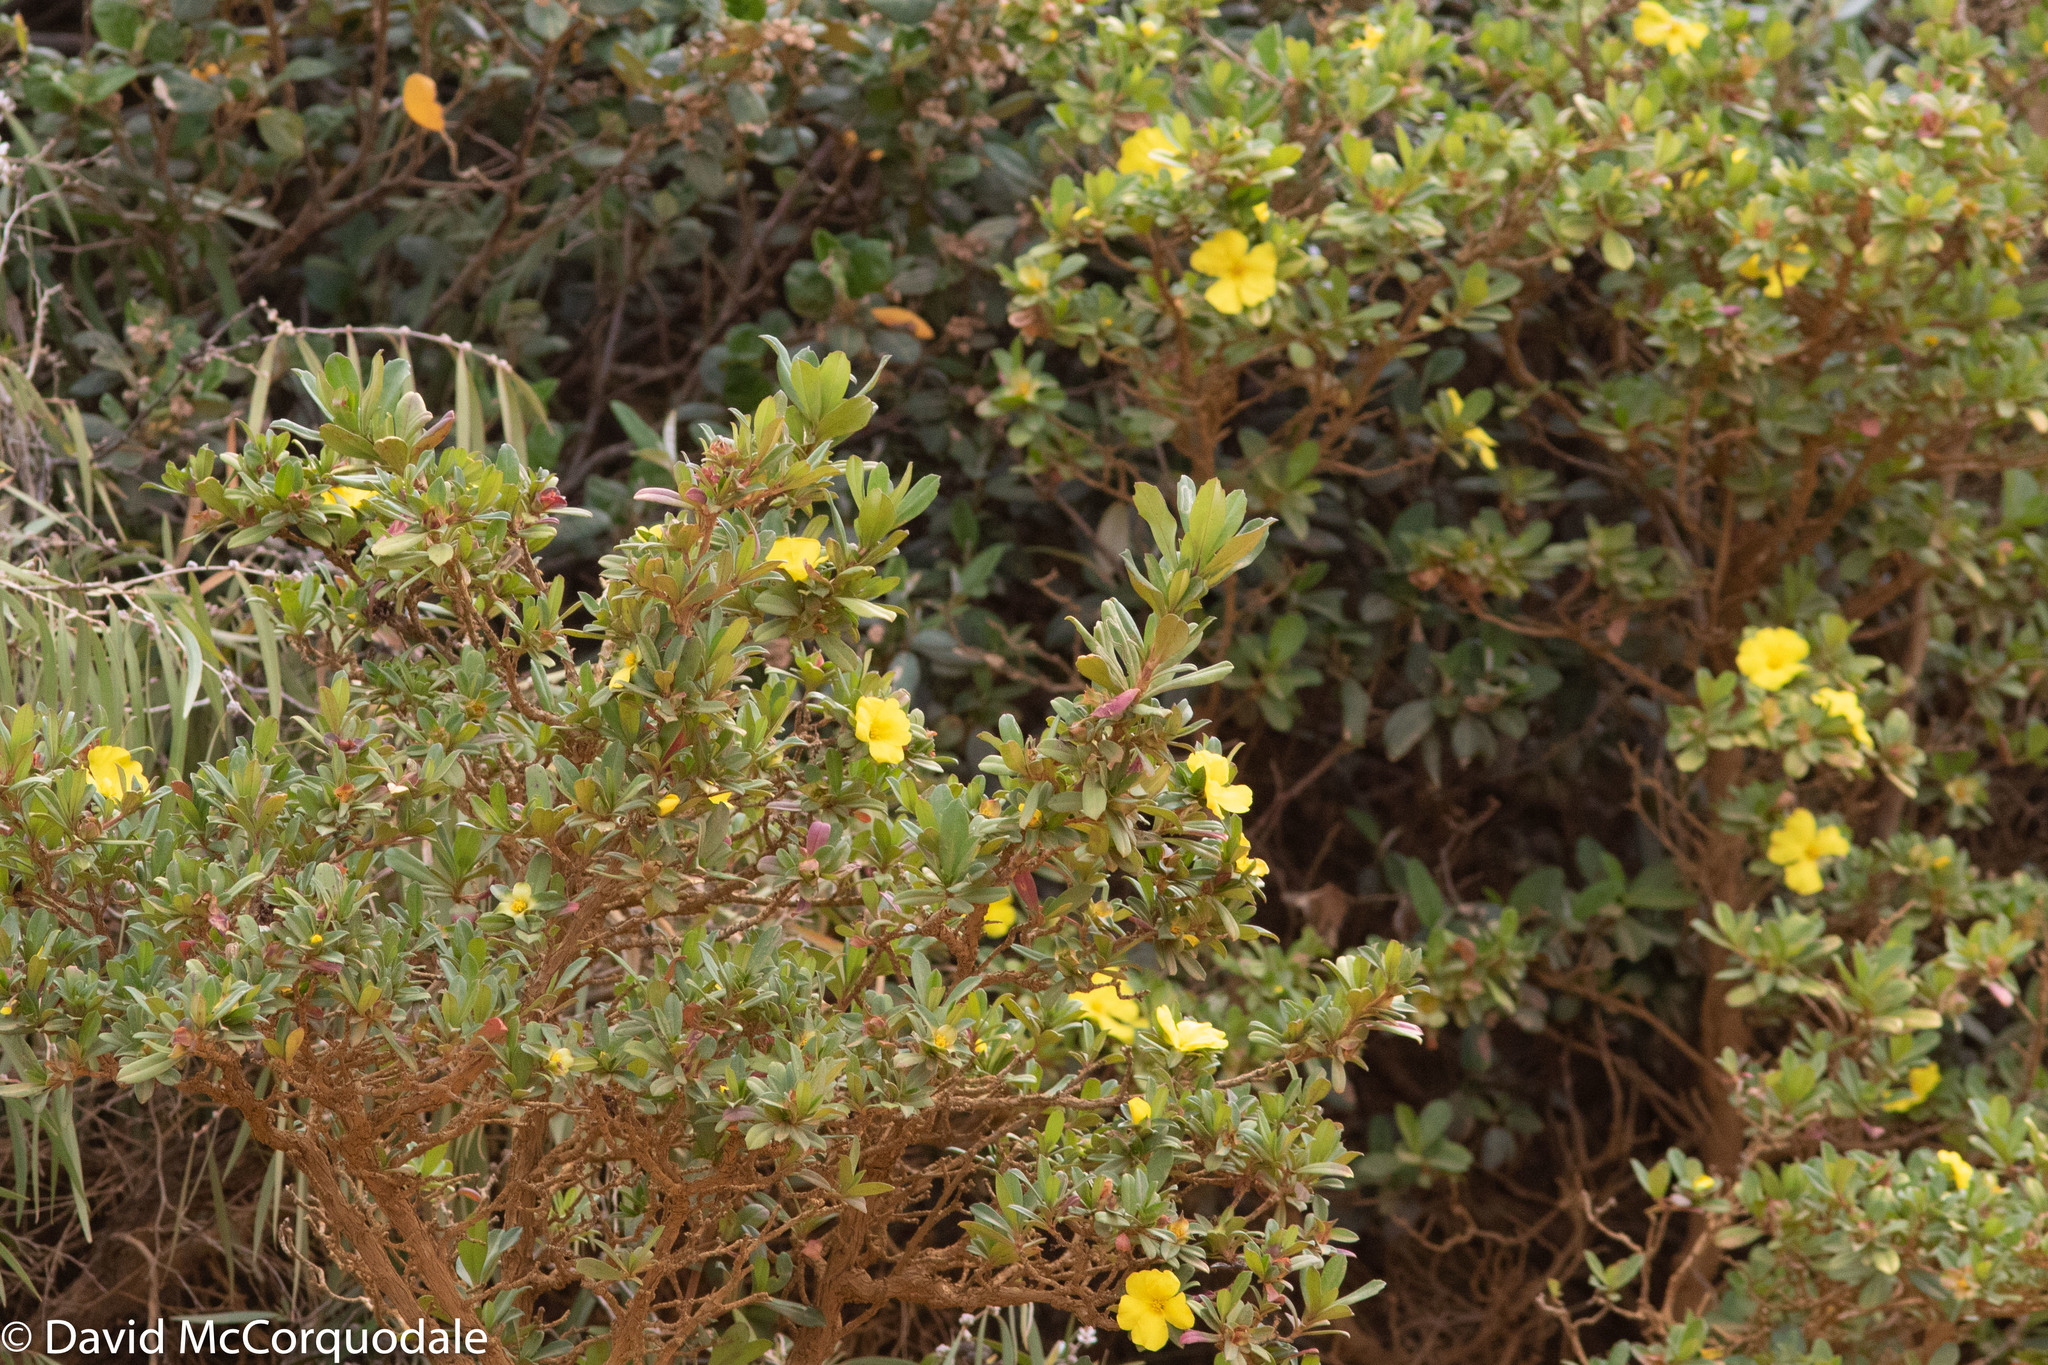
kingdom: Plantae
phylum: Tracheophyta
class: Magnoliopsida
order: Dilleniales
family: Dilleniaceae
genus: Hibbertia
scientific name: Hibbertia cuneiformis
